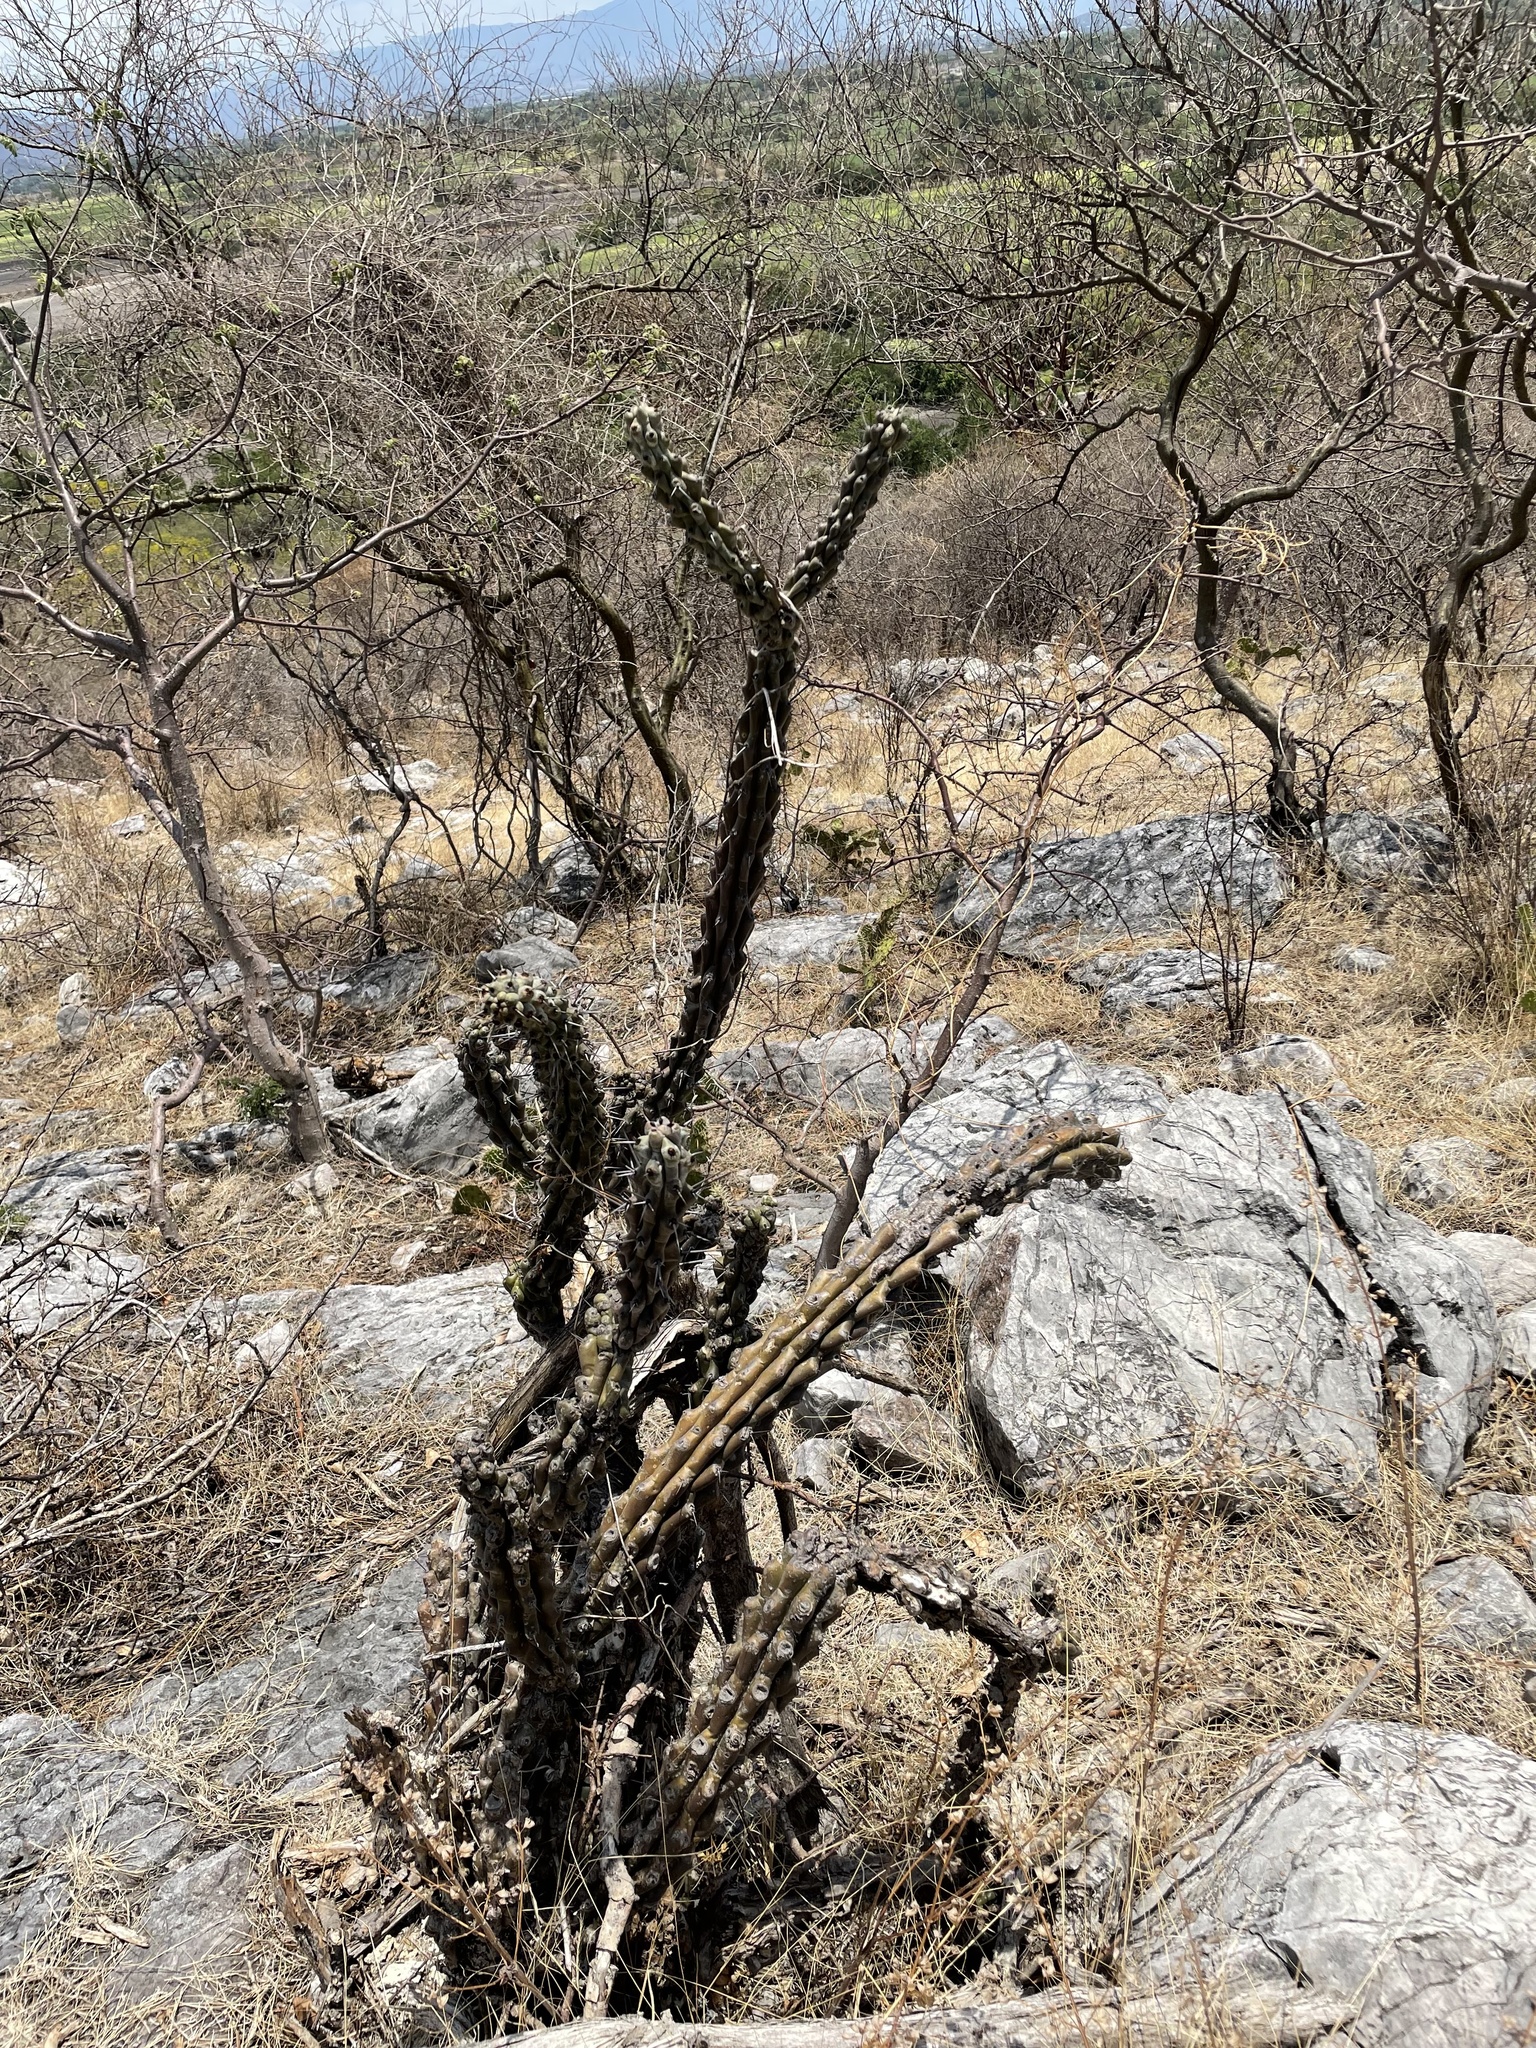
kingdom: Plantae
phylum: Tracheophyta
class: Magnoliopsida
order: Caryophyllales
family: Cactaceae
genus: Stenocereus
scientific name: Stenocereus beneckei
